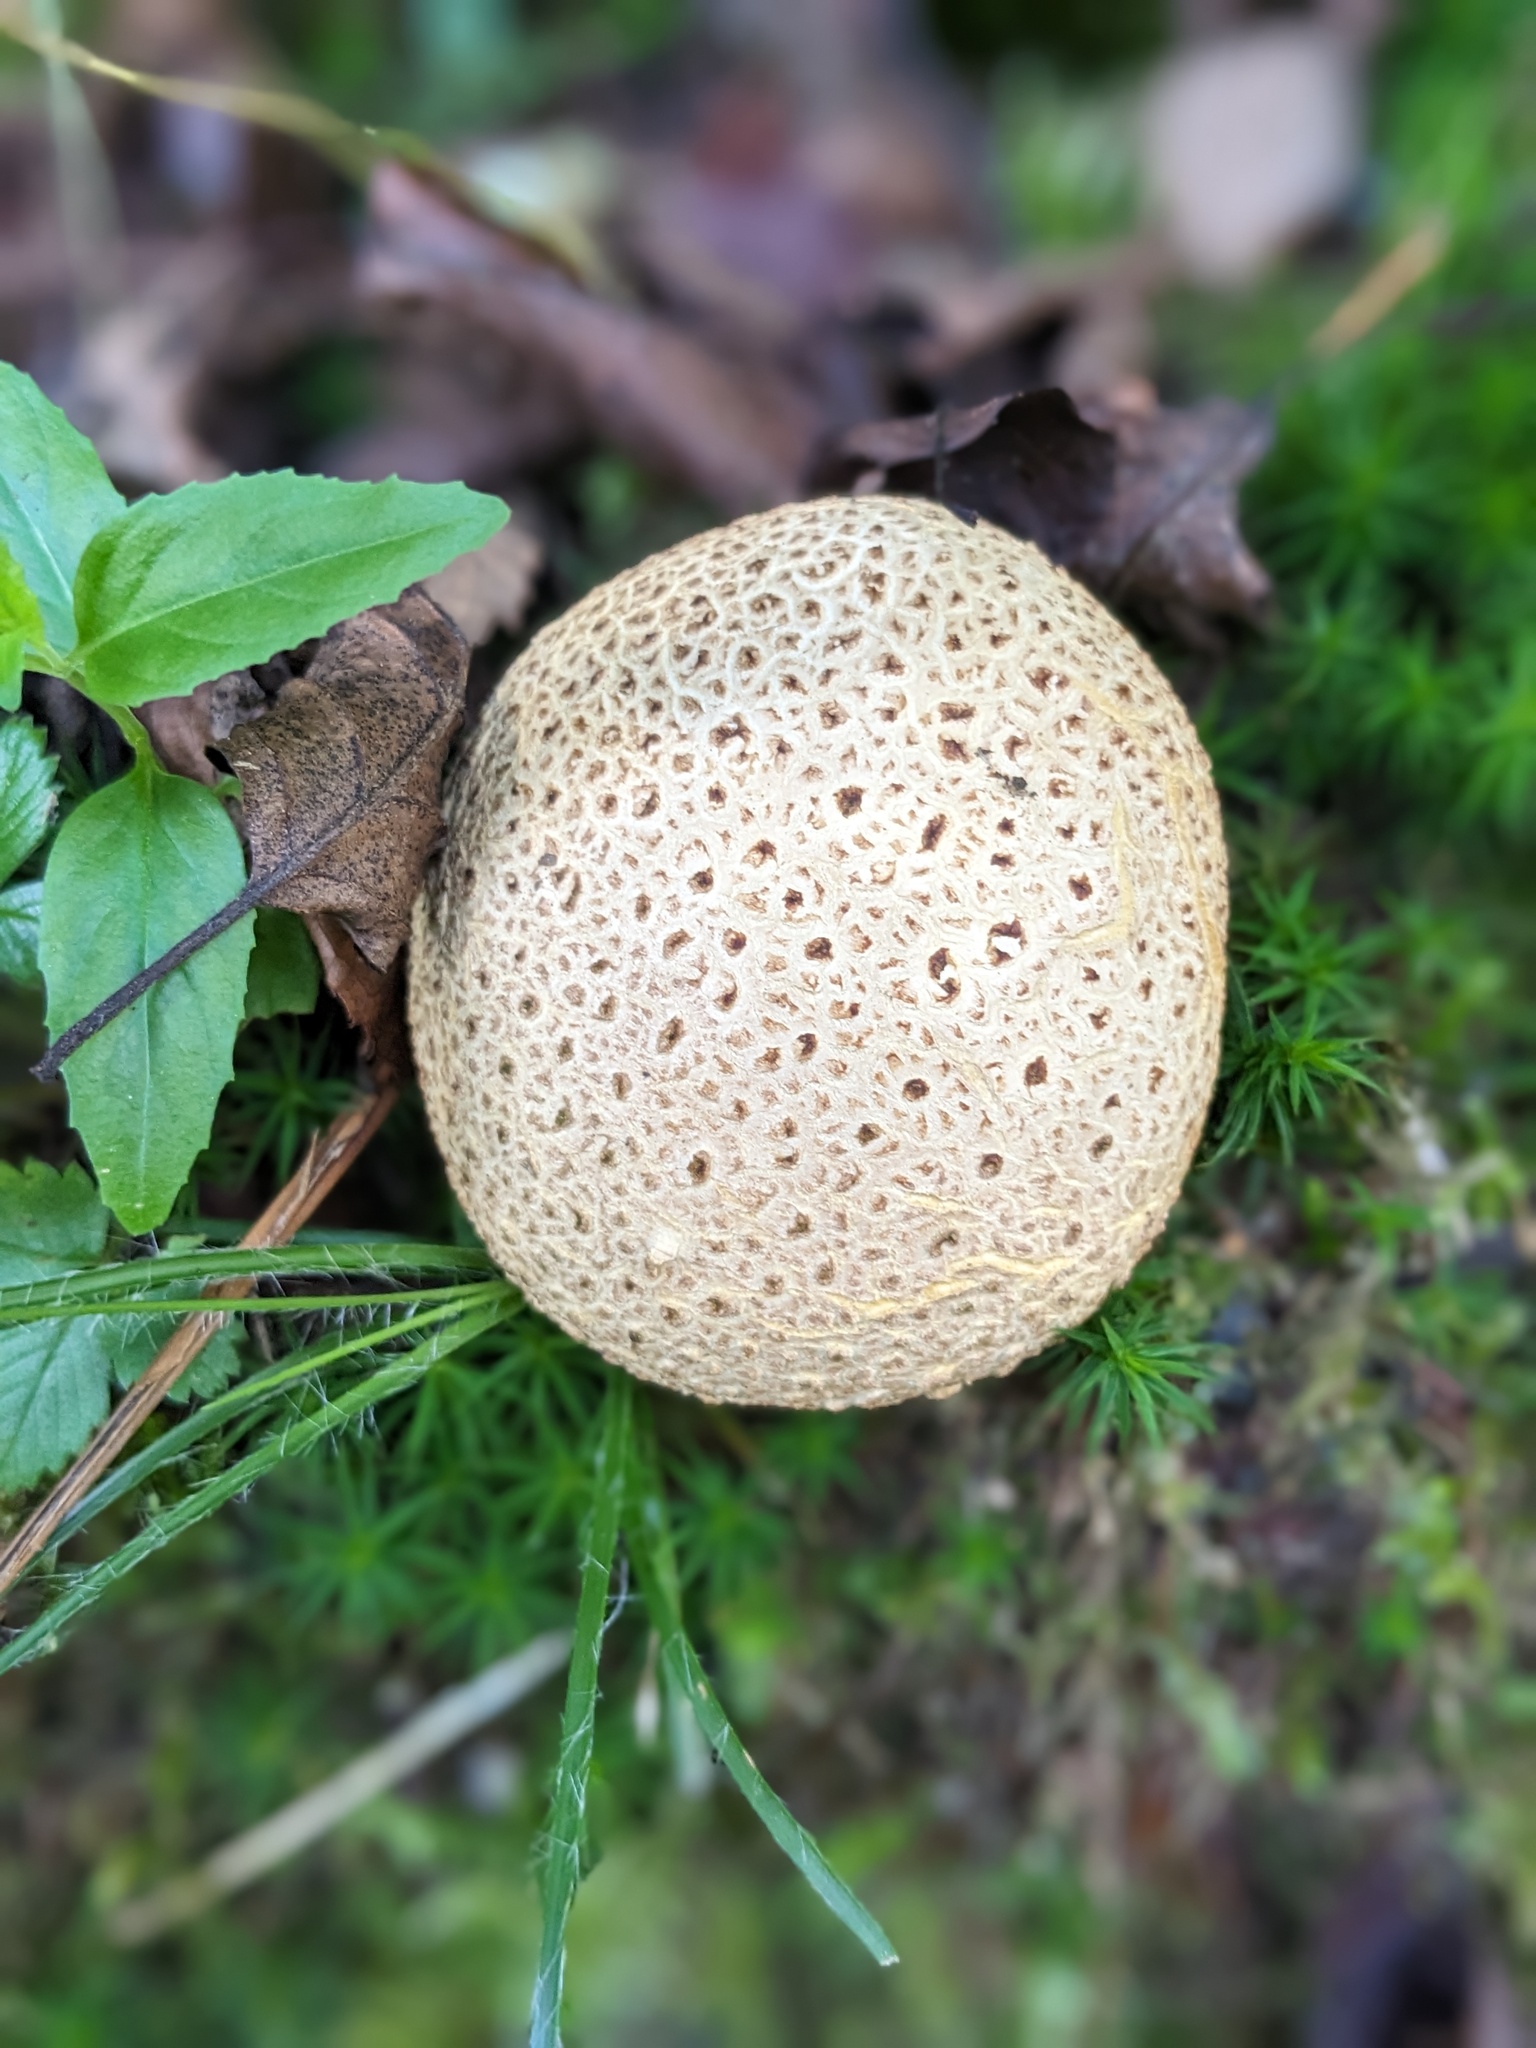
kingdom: Fungi
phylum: Basidiomycota
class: Agaricomycetes
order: Boletales
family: Sclerodermataceae
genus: Scleroderma
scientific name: Scleroderma citrinum
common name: Common earthball
